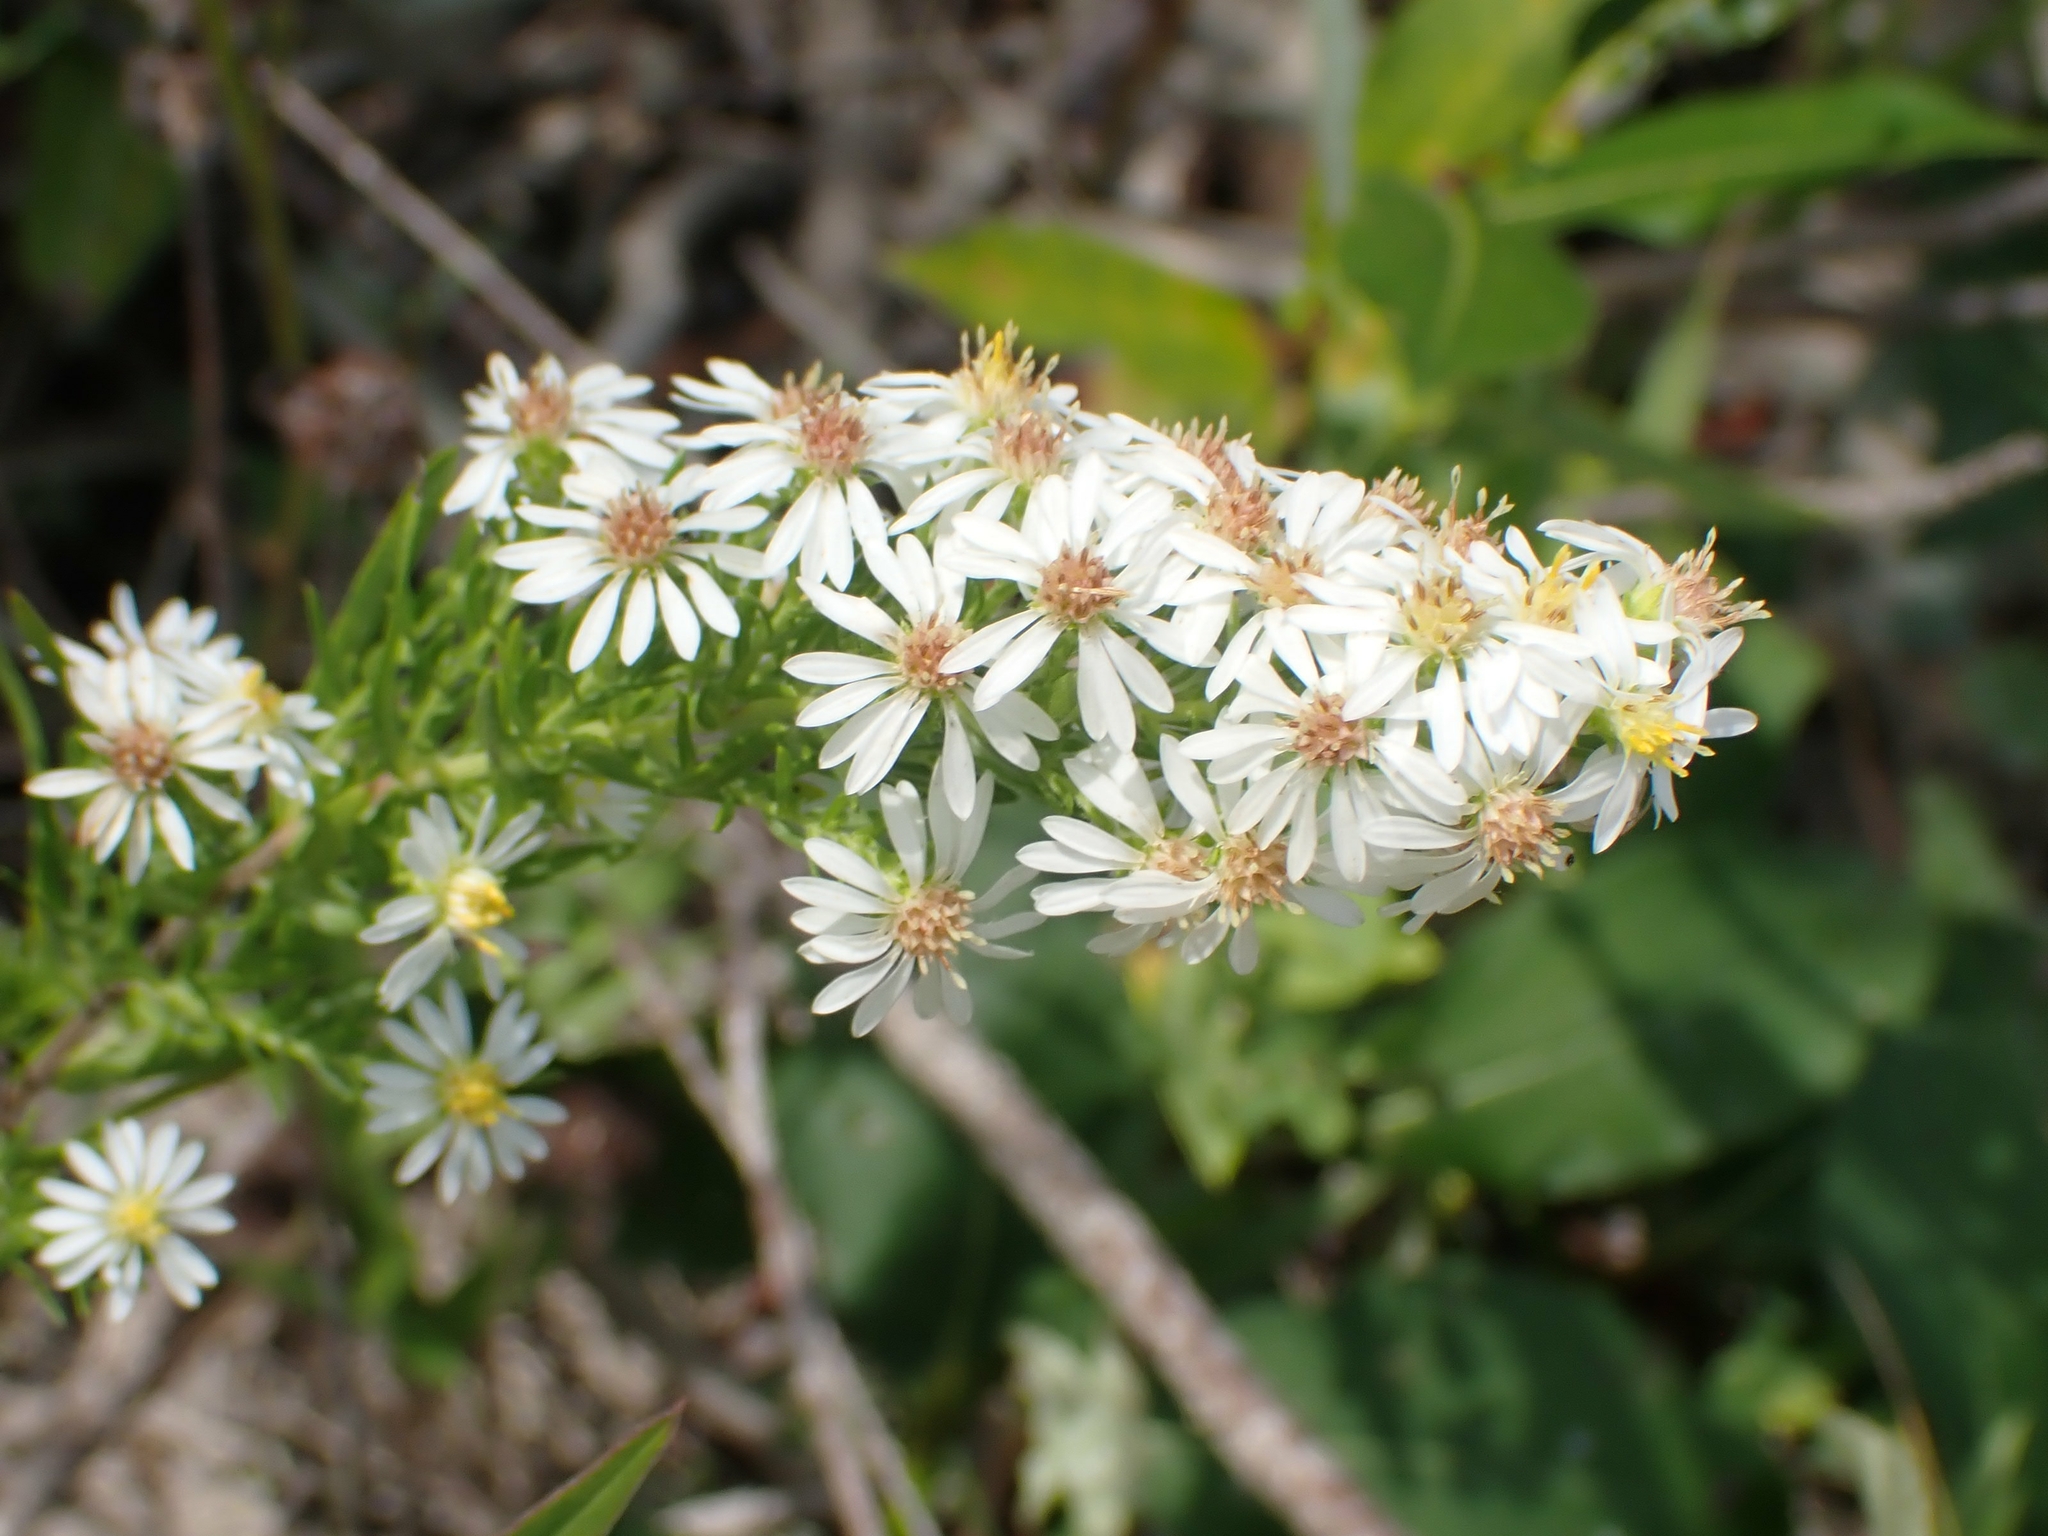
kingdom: Plantae
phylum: Tracheophyta
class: Magnoliopsida
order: Asterales
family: Asteraceae
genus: Symphyotrichum
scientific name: Symphyotrichum ericoides
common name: Heath aster
